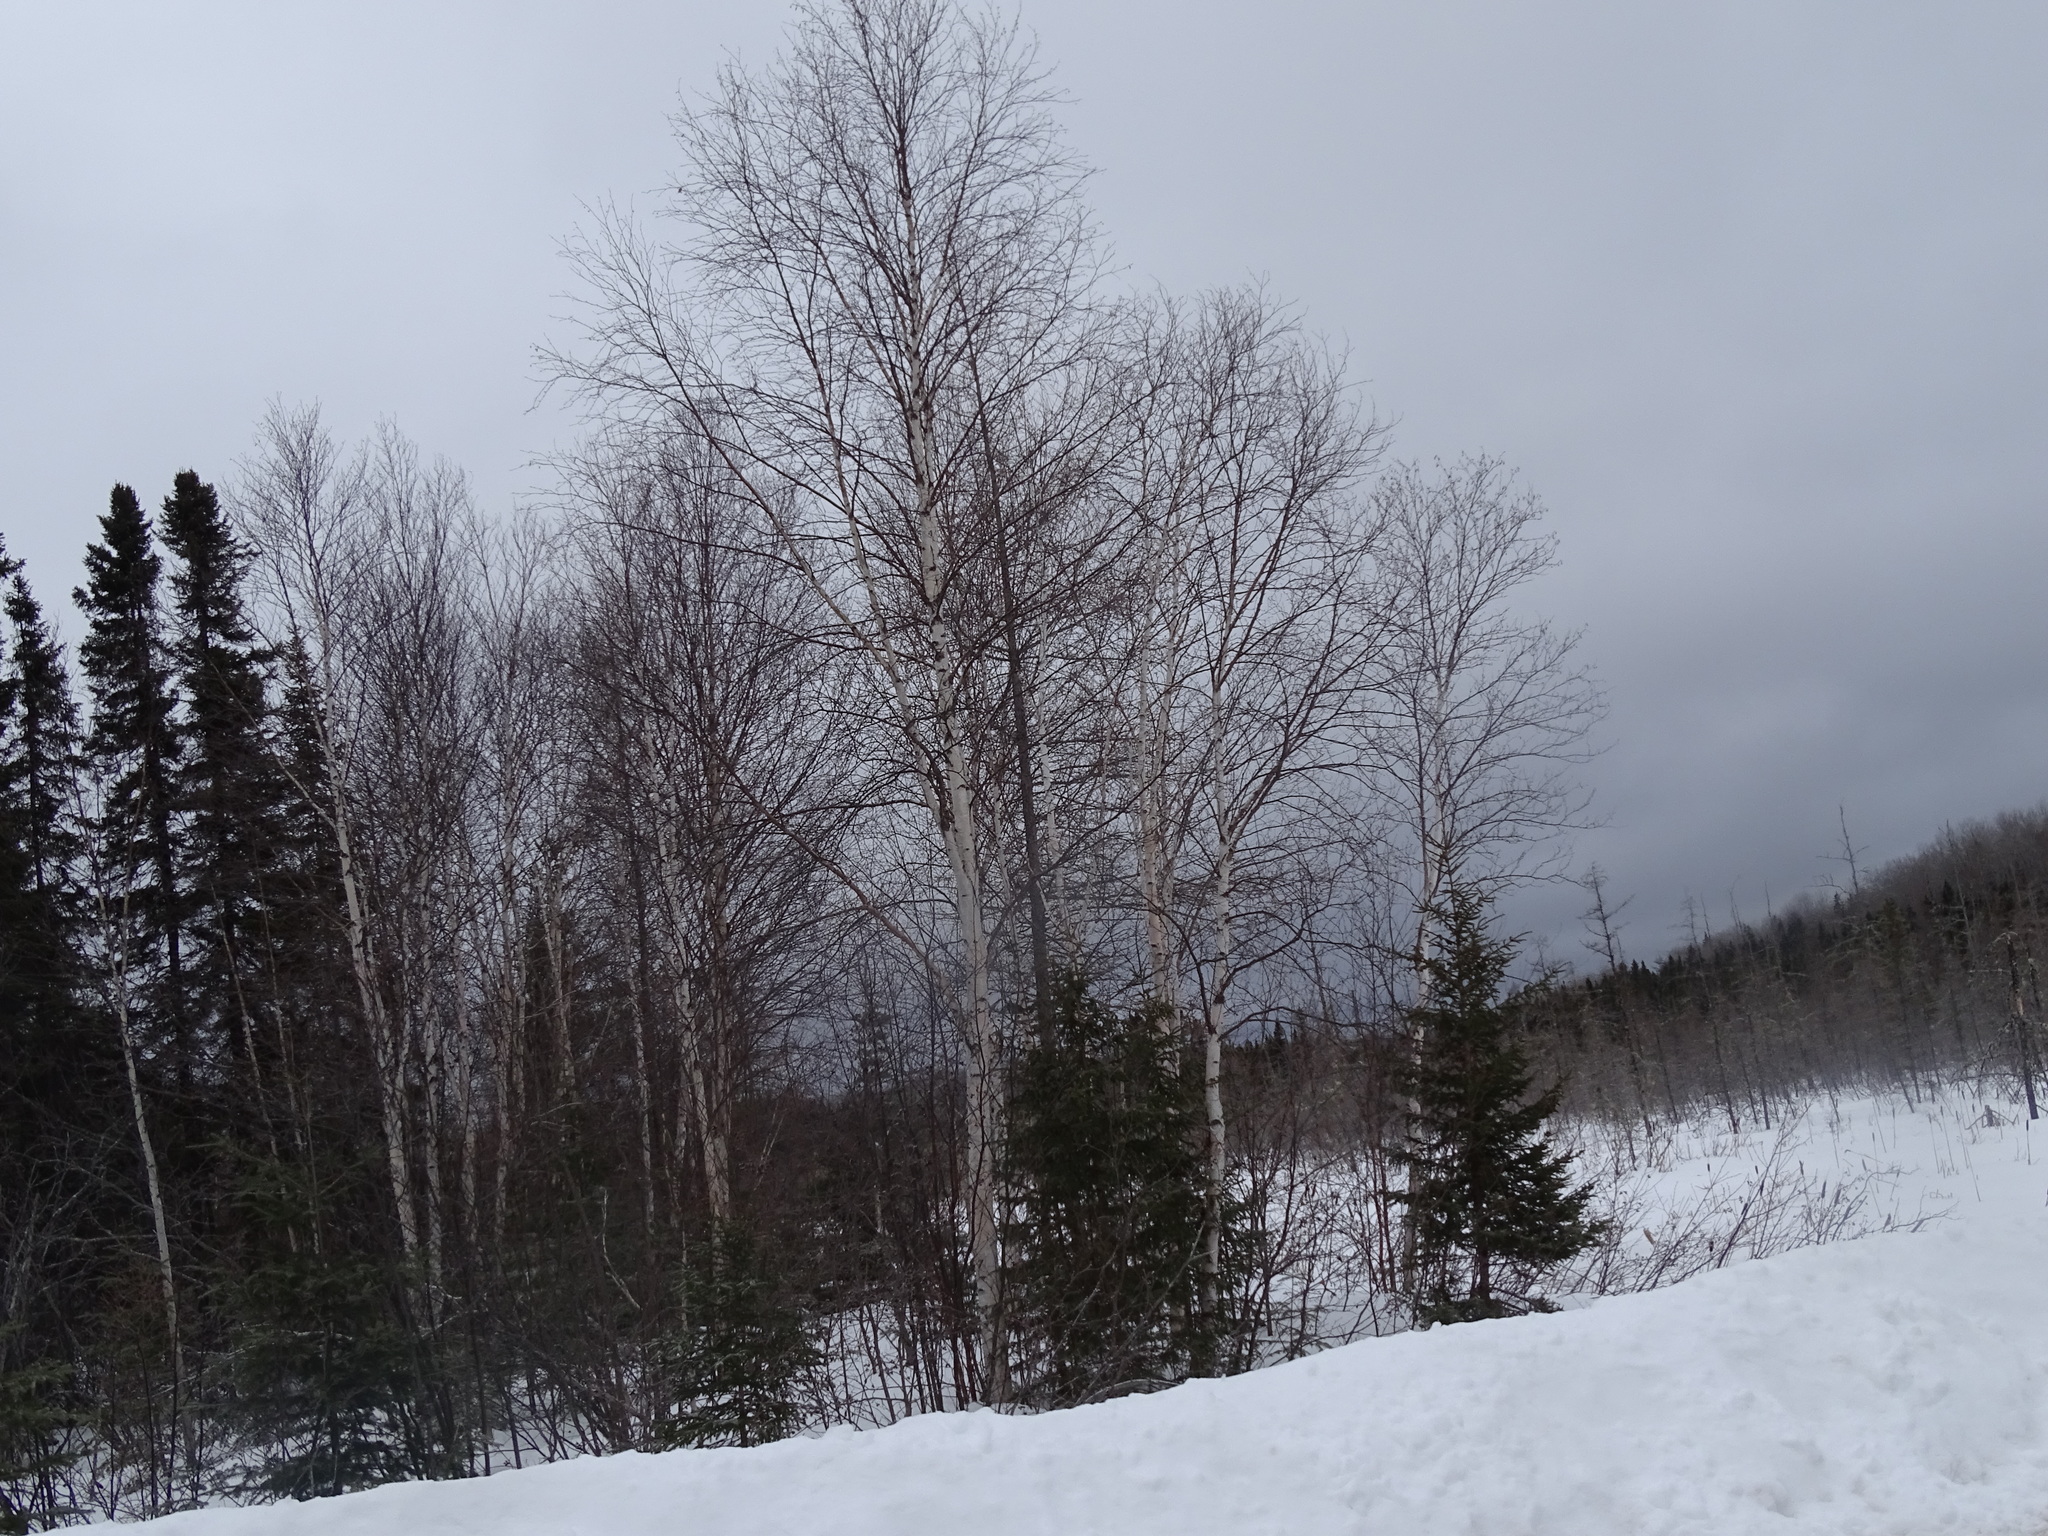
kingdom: Plantae
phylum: Tracheophyta
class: Magnoliopsida
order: Fagales
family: Betulaceae
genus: Betula
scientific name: Betula papyrifera
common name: Paper birch
